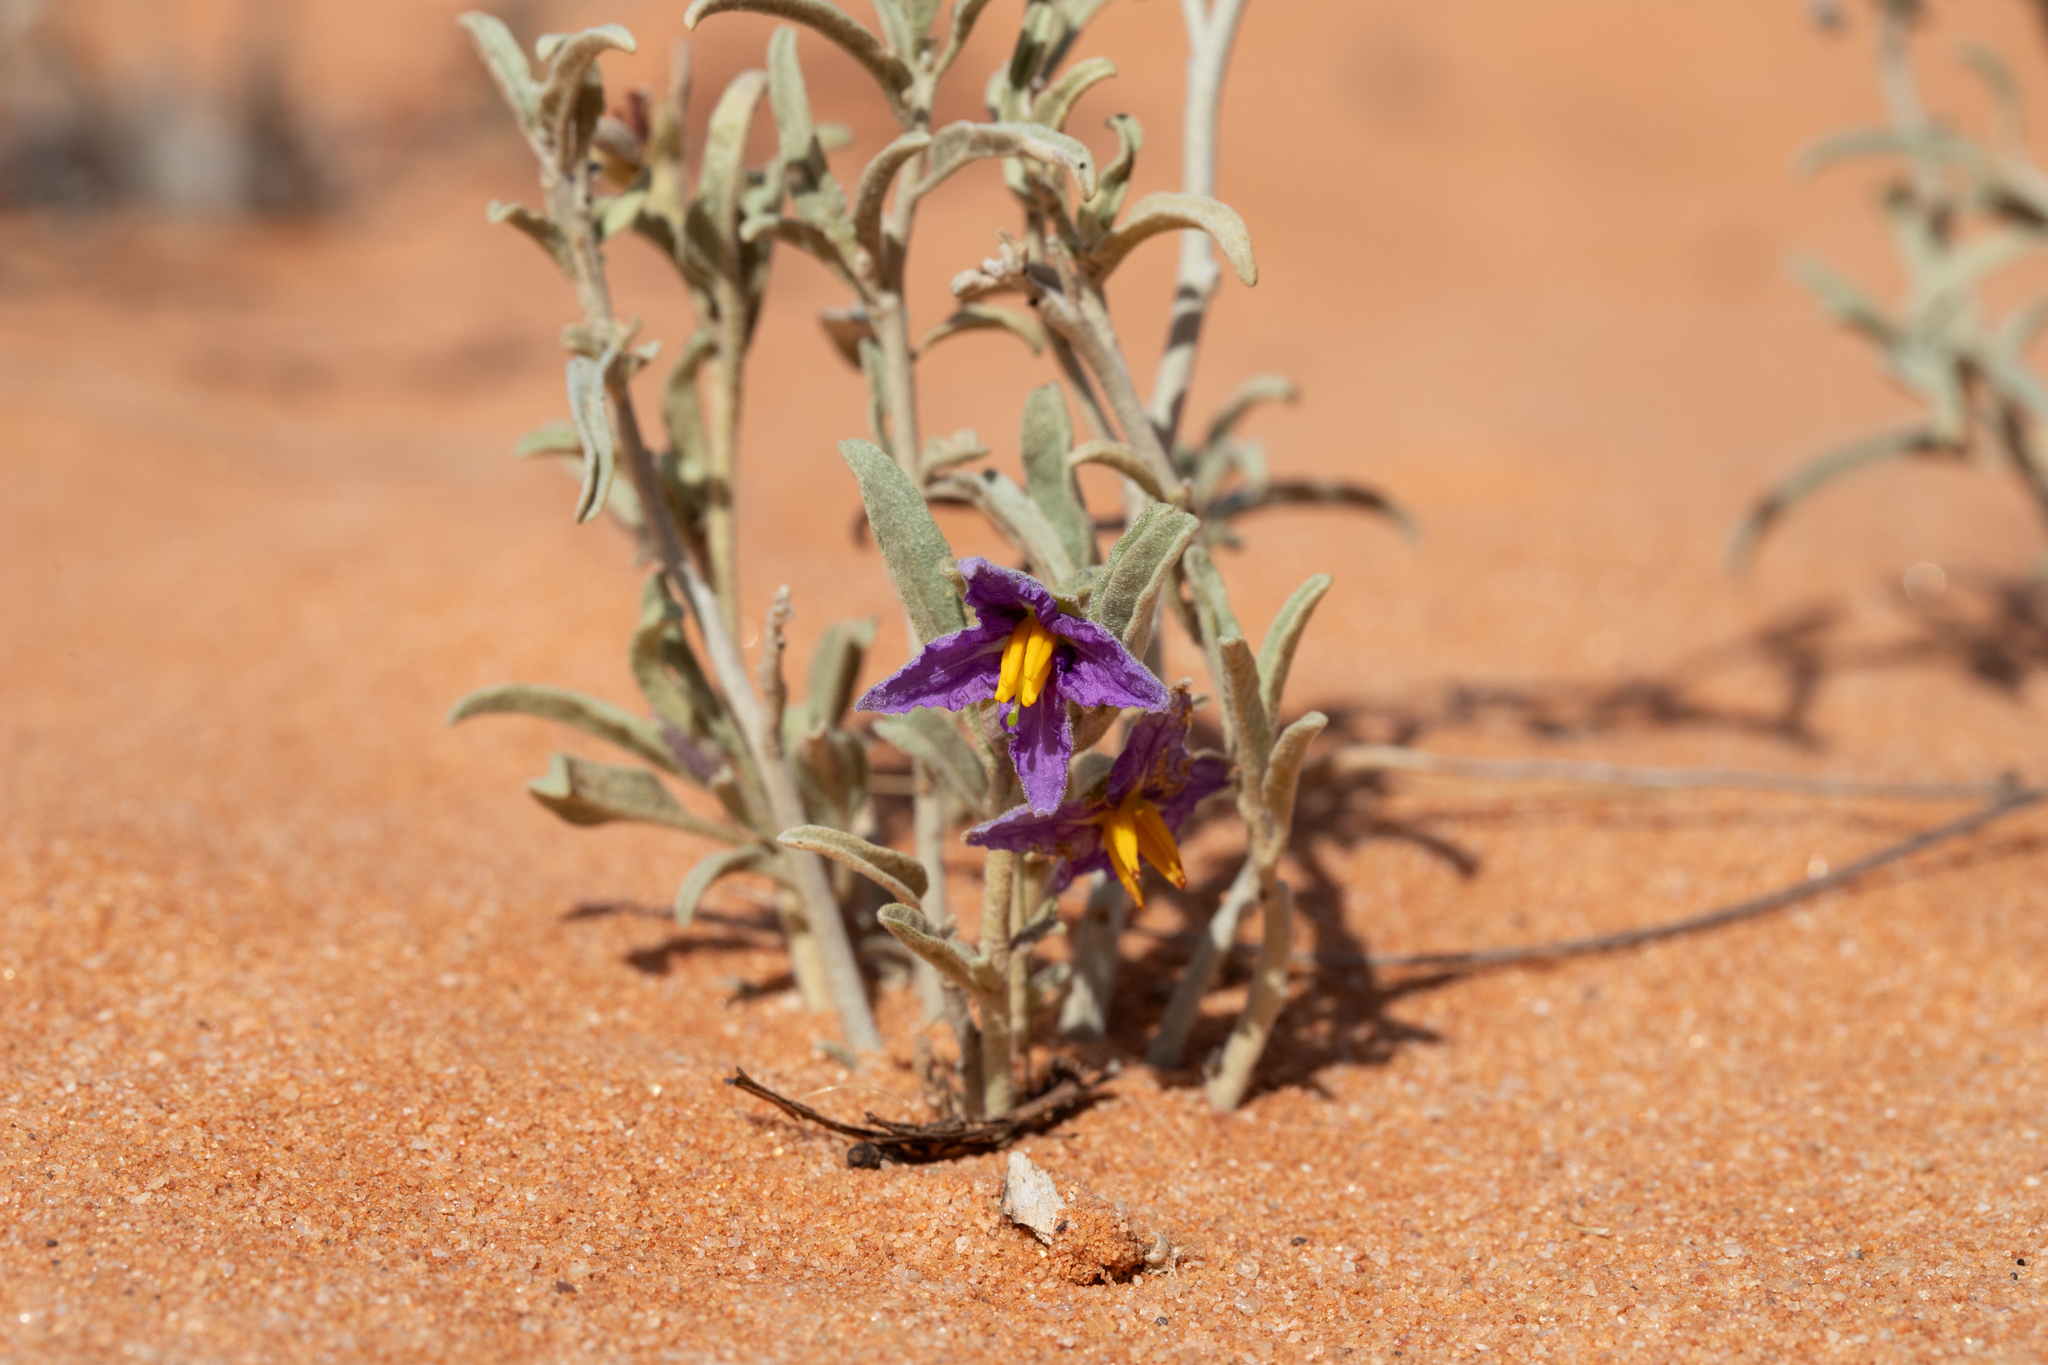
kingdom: Plantae
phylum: Tracheophyta
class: Magnoliopsida
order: Solanales
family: Solanaceae
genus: Solanum
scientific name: Solanum coactiliferum
